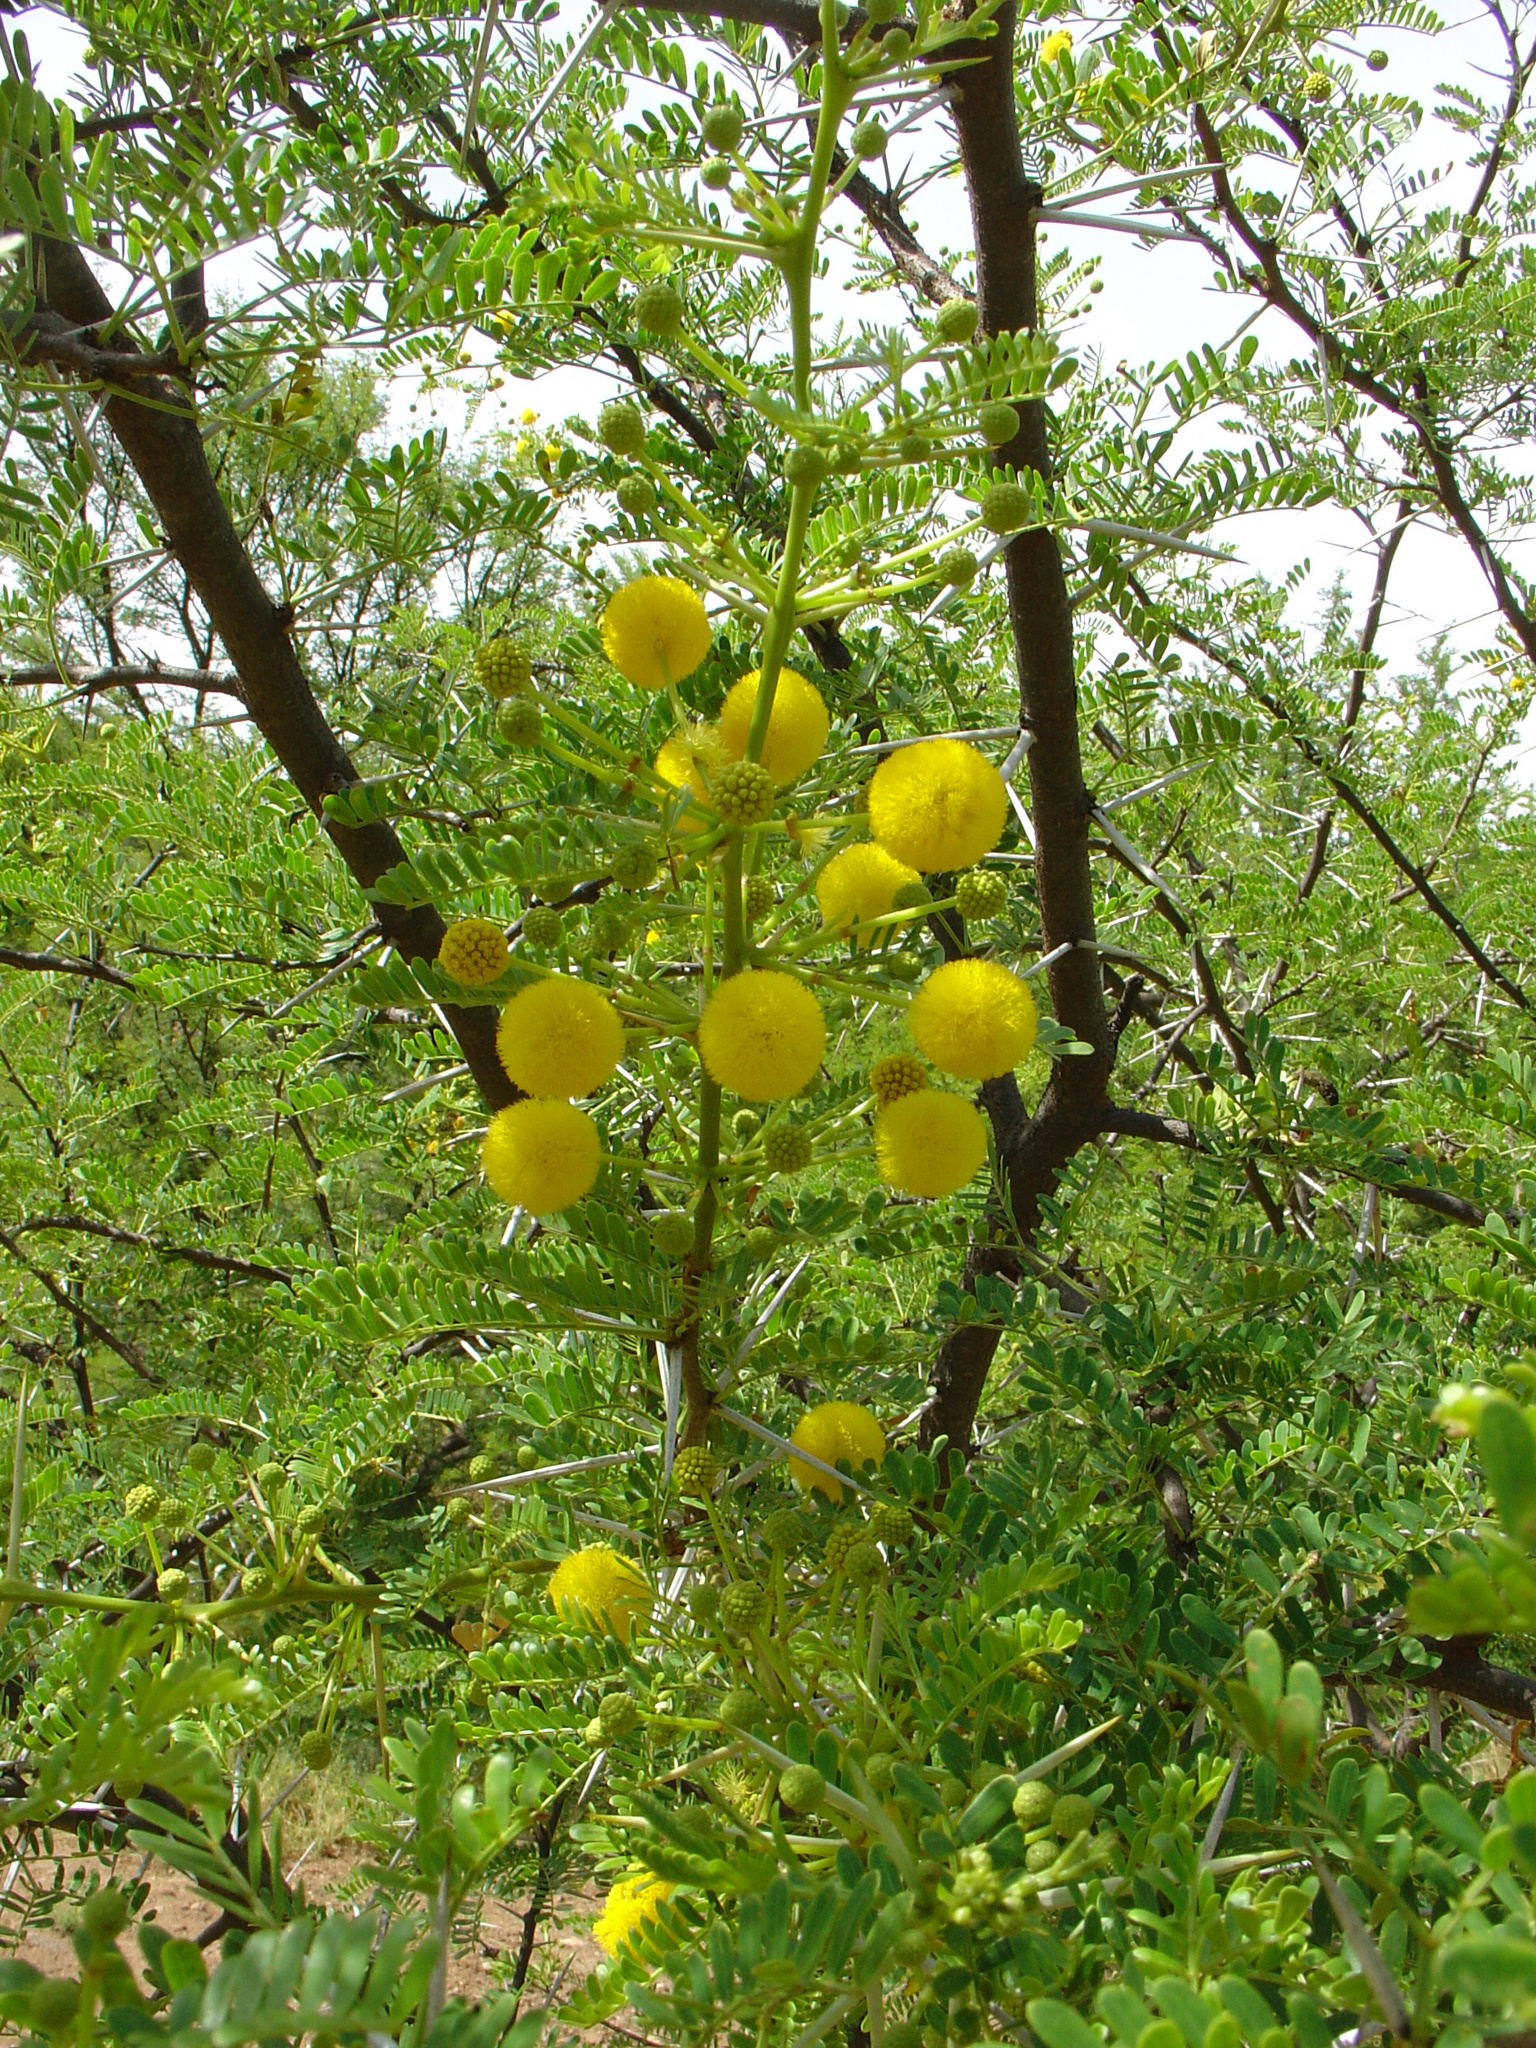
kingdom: Plantae
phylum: Tracheophyta
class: Magnoliopsida
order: Fabales
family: Fabaceae
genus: Vachellia
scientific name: Vachellia karroo
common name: Sweet thorn
